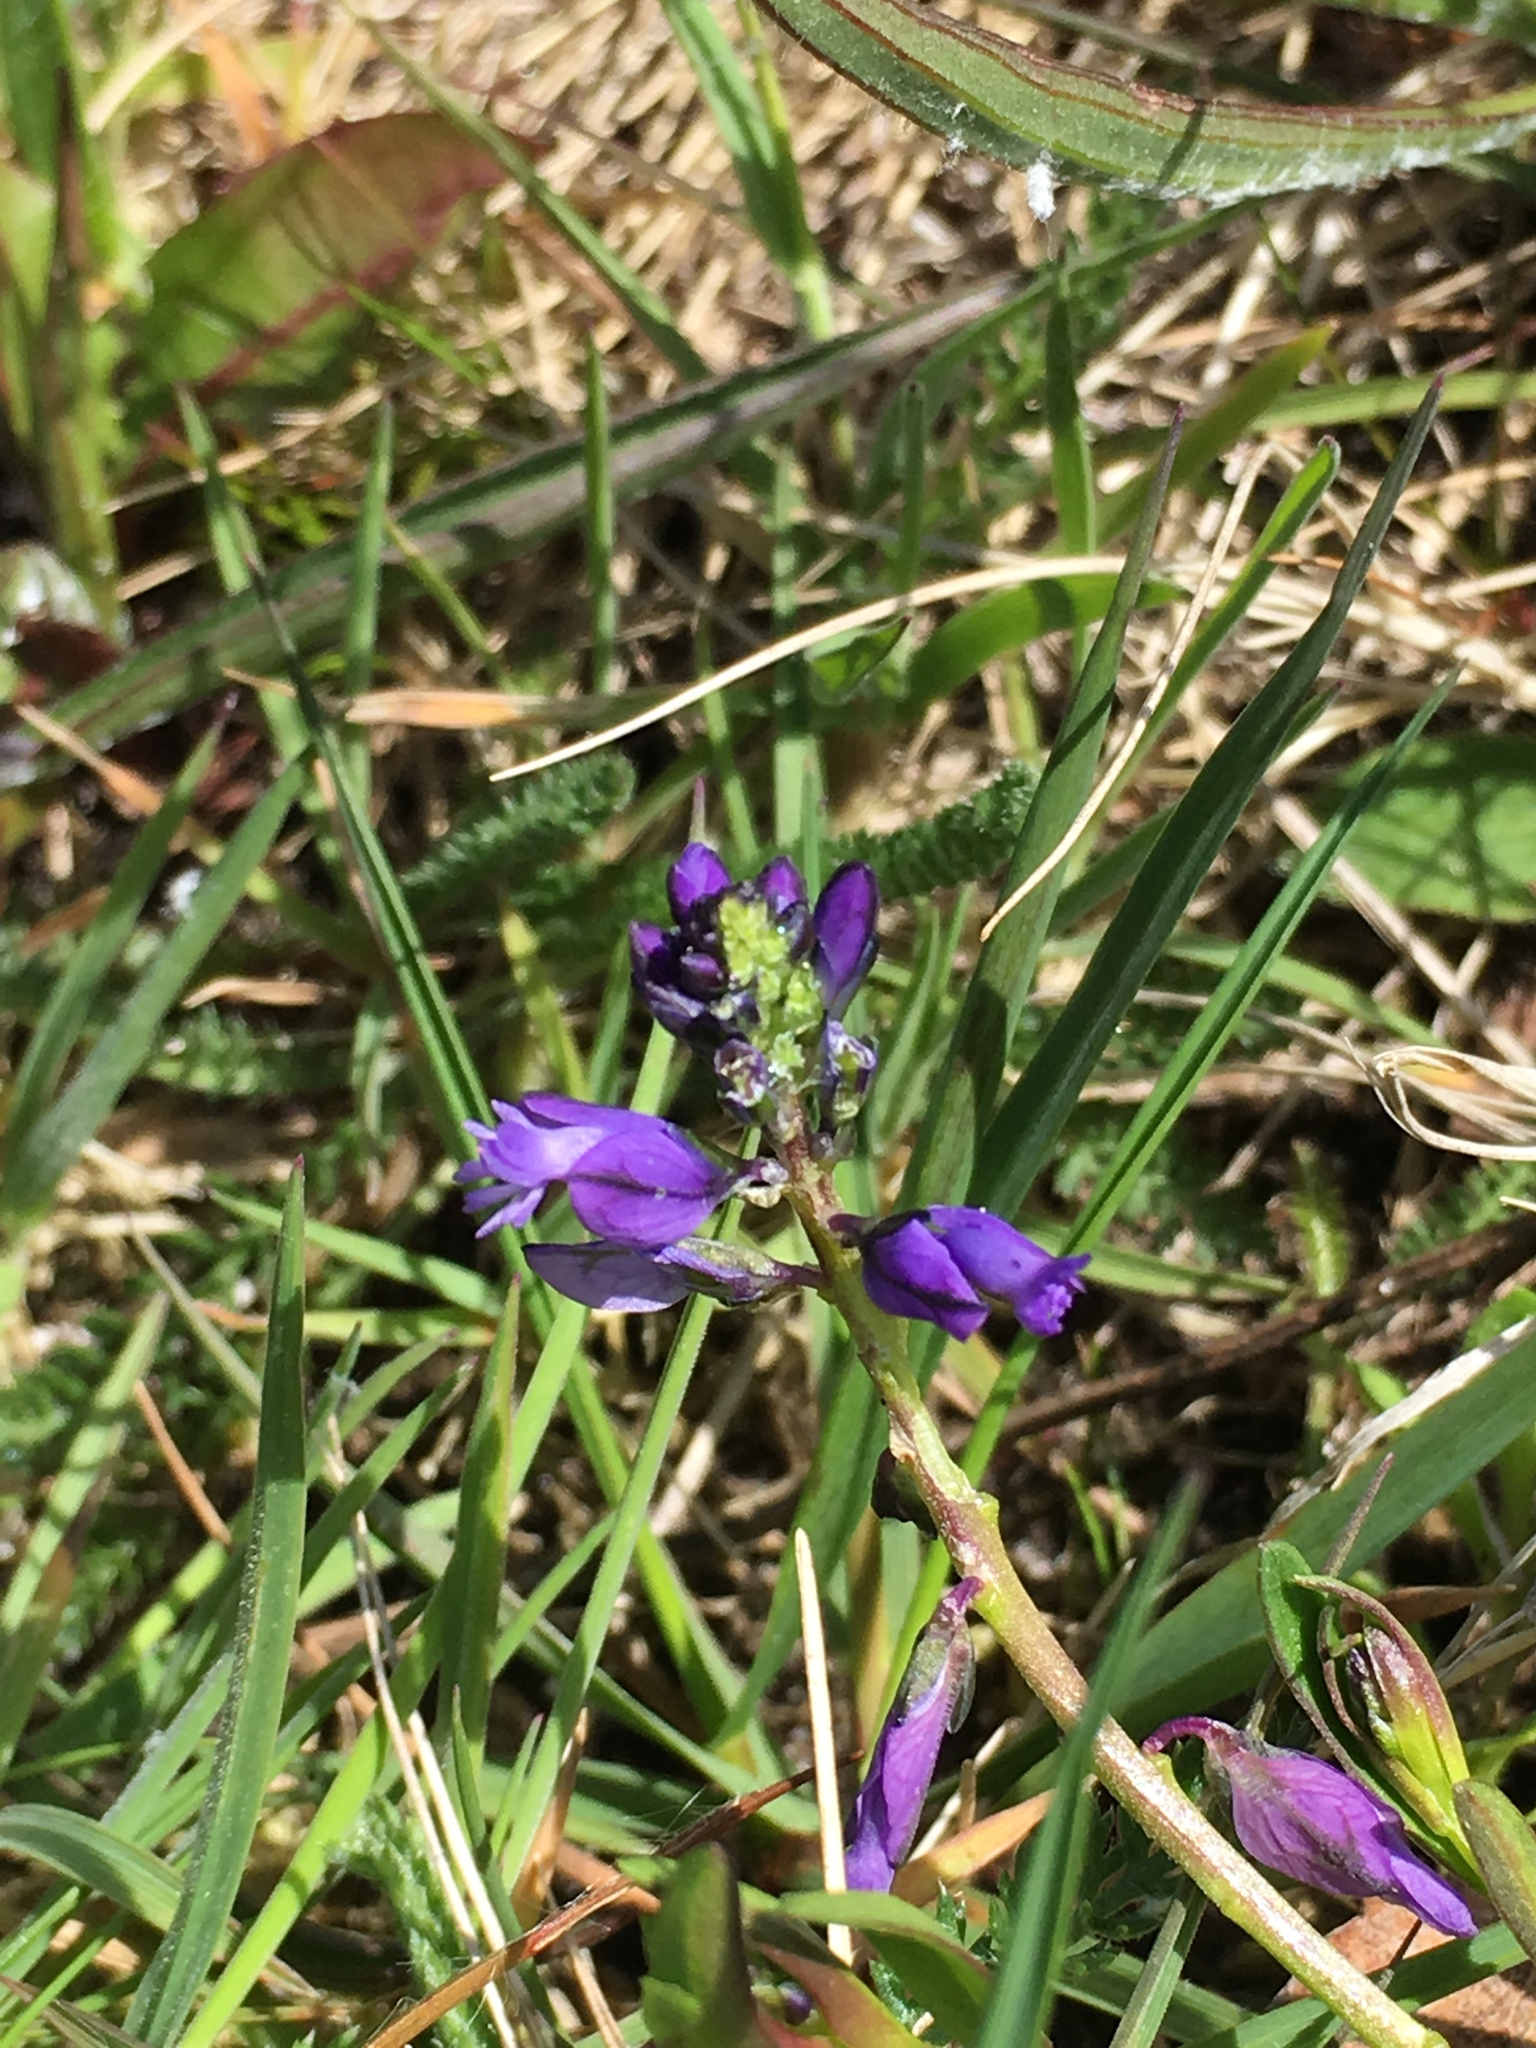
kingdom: Plantae
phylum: Tracheophyta
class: Magnoliopsida
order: Fabales
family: Polygalaceae
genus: Polygala
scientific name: Polygala vulgaris
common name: Common milkwort
